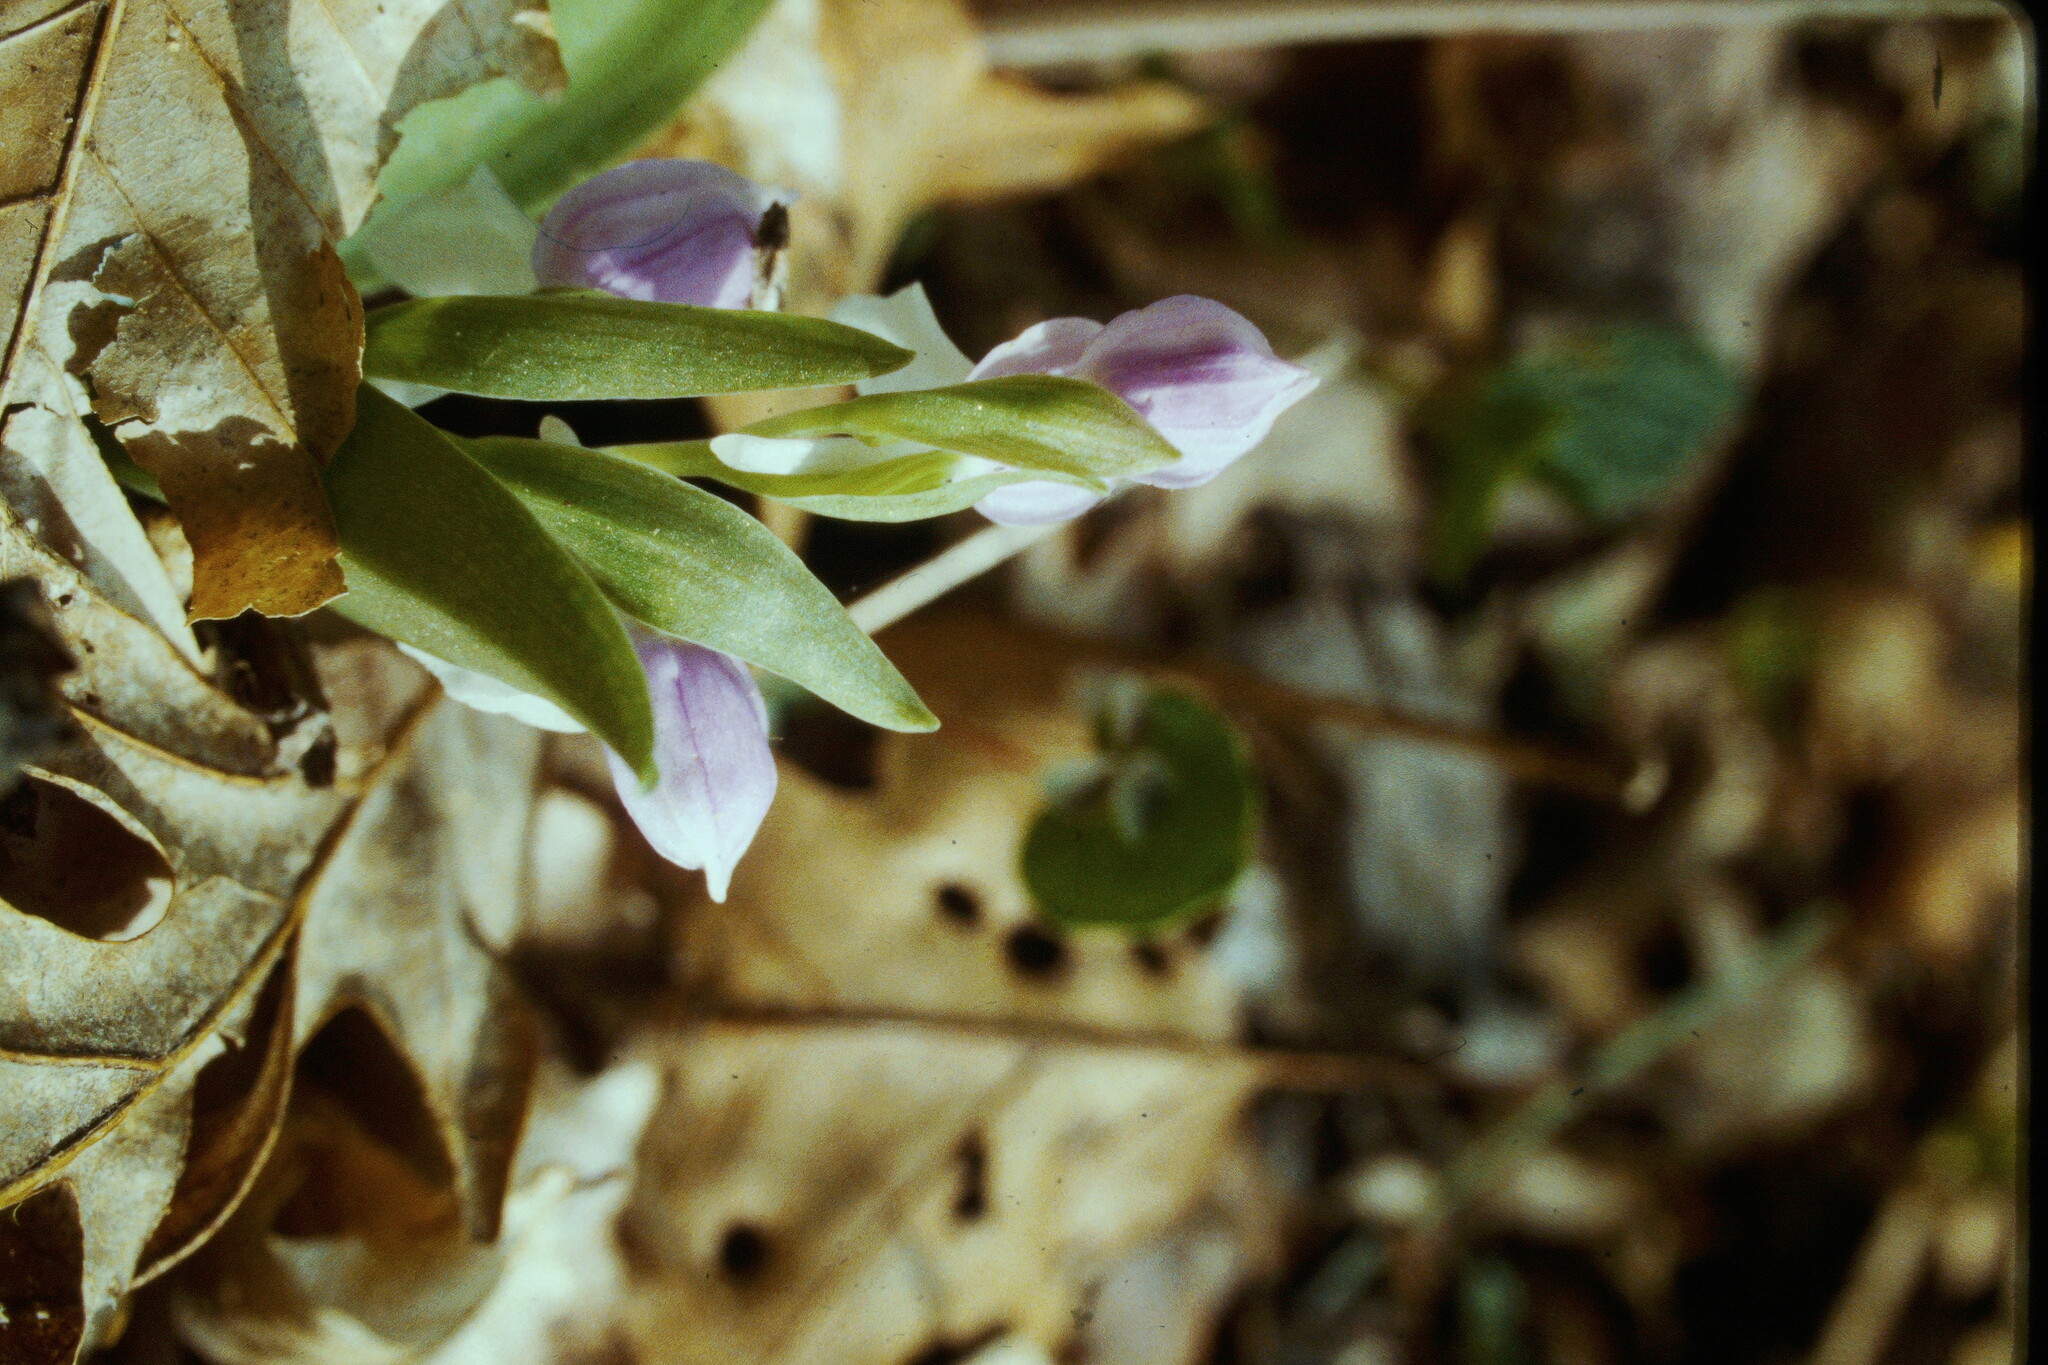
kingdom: Plantae
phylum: Tracheophyta
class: Liliopsida
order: Asparagales
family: Orchidaceae
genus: Galearis
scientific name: Galearis spectabilis
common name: Purple-hooded orchis
